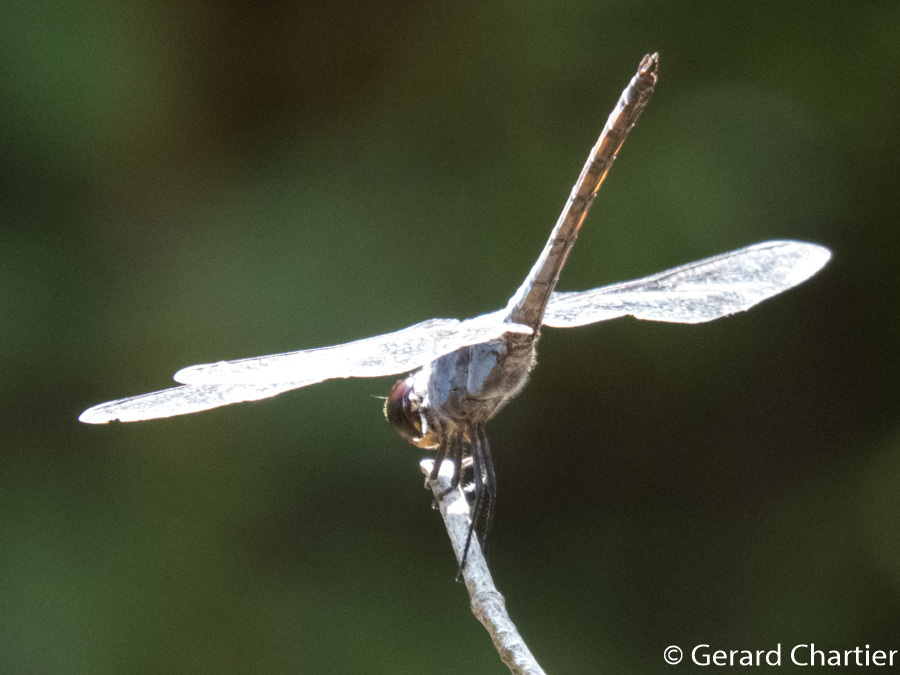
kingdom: Animalia
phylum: Arthropoda
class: Insecta
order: Odonata
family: Libellulidae
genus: Potamarcha
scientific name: Potamarcha congener
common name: Blue chaser
